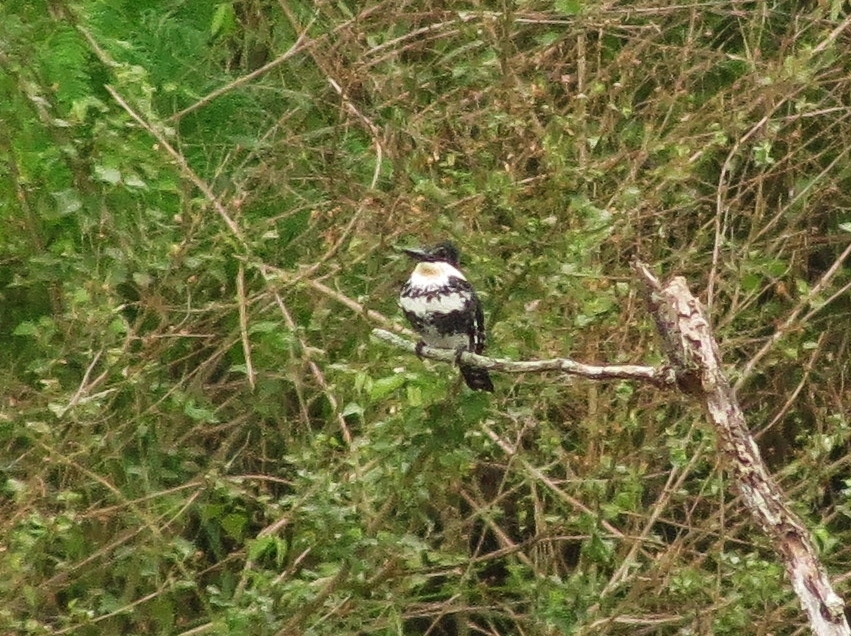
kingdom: Animalia
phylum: Chordata
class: Aves
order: Coraciiformes
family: Alcedinidae
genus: Chloroceryle
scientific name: Chloroceryle americana
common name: Green kingfisher
